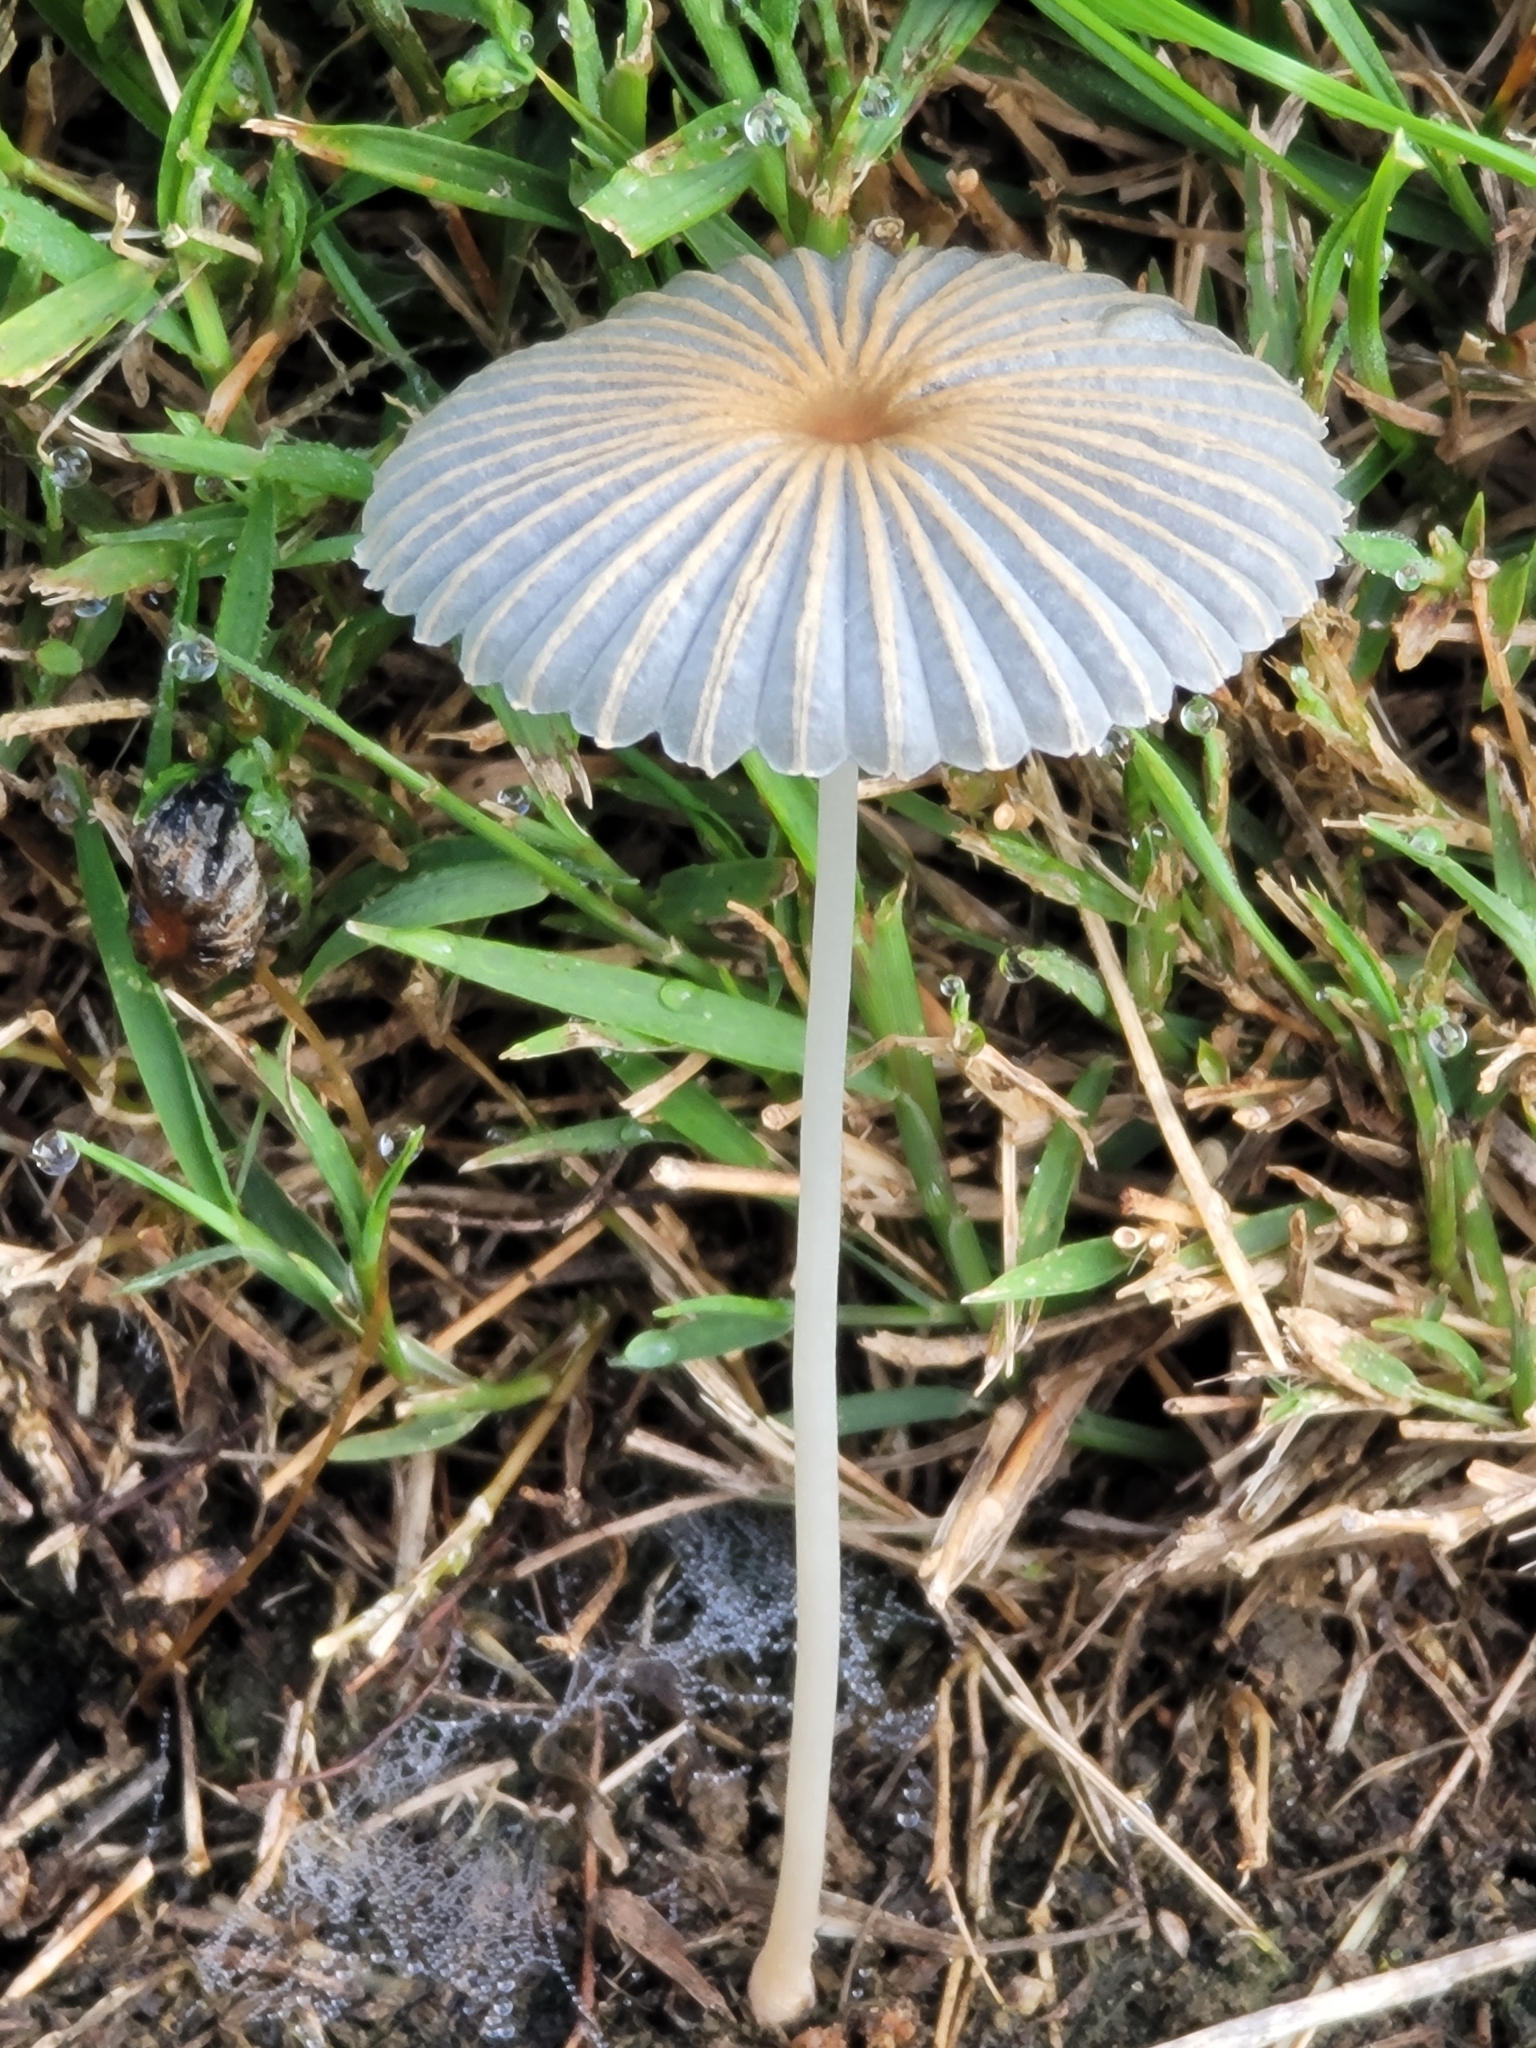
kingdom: Fungi
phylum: Basidiomycota
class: Agaricomycetes
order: Agaricales
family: Psathyrellaceae
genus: Parasola
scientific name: Parasola plicatilis
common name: Pleated inkcap
